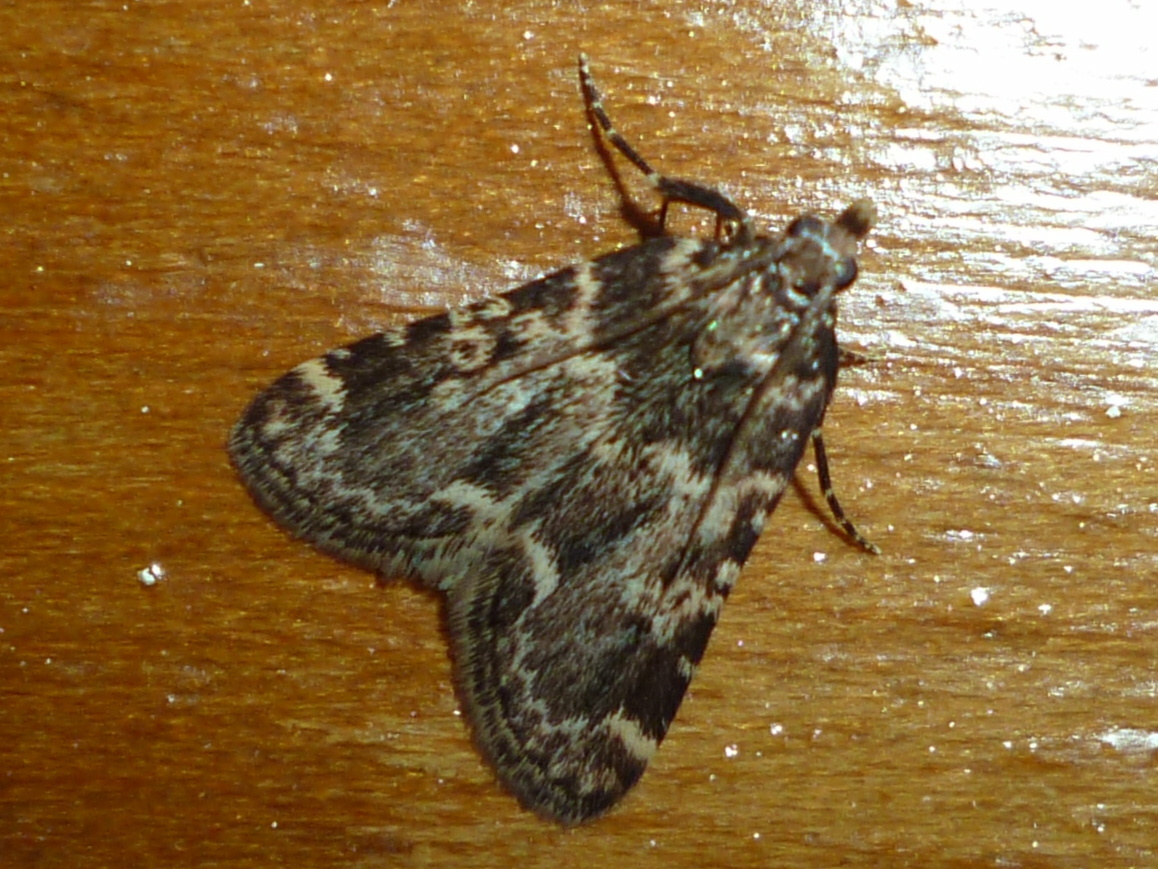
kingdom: Animalia
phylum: Arthropoda
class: Insecta
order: Lepidoptera
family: Pyralidae
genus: Aglossa
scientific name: Aglossa caprealis
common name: Small tabby
